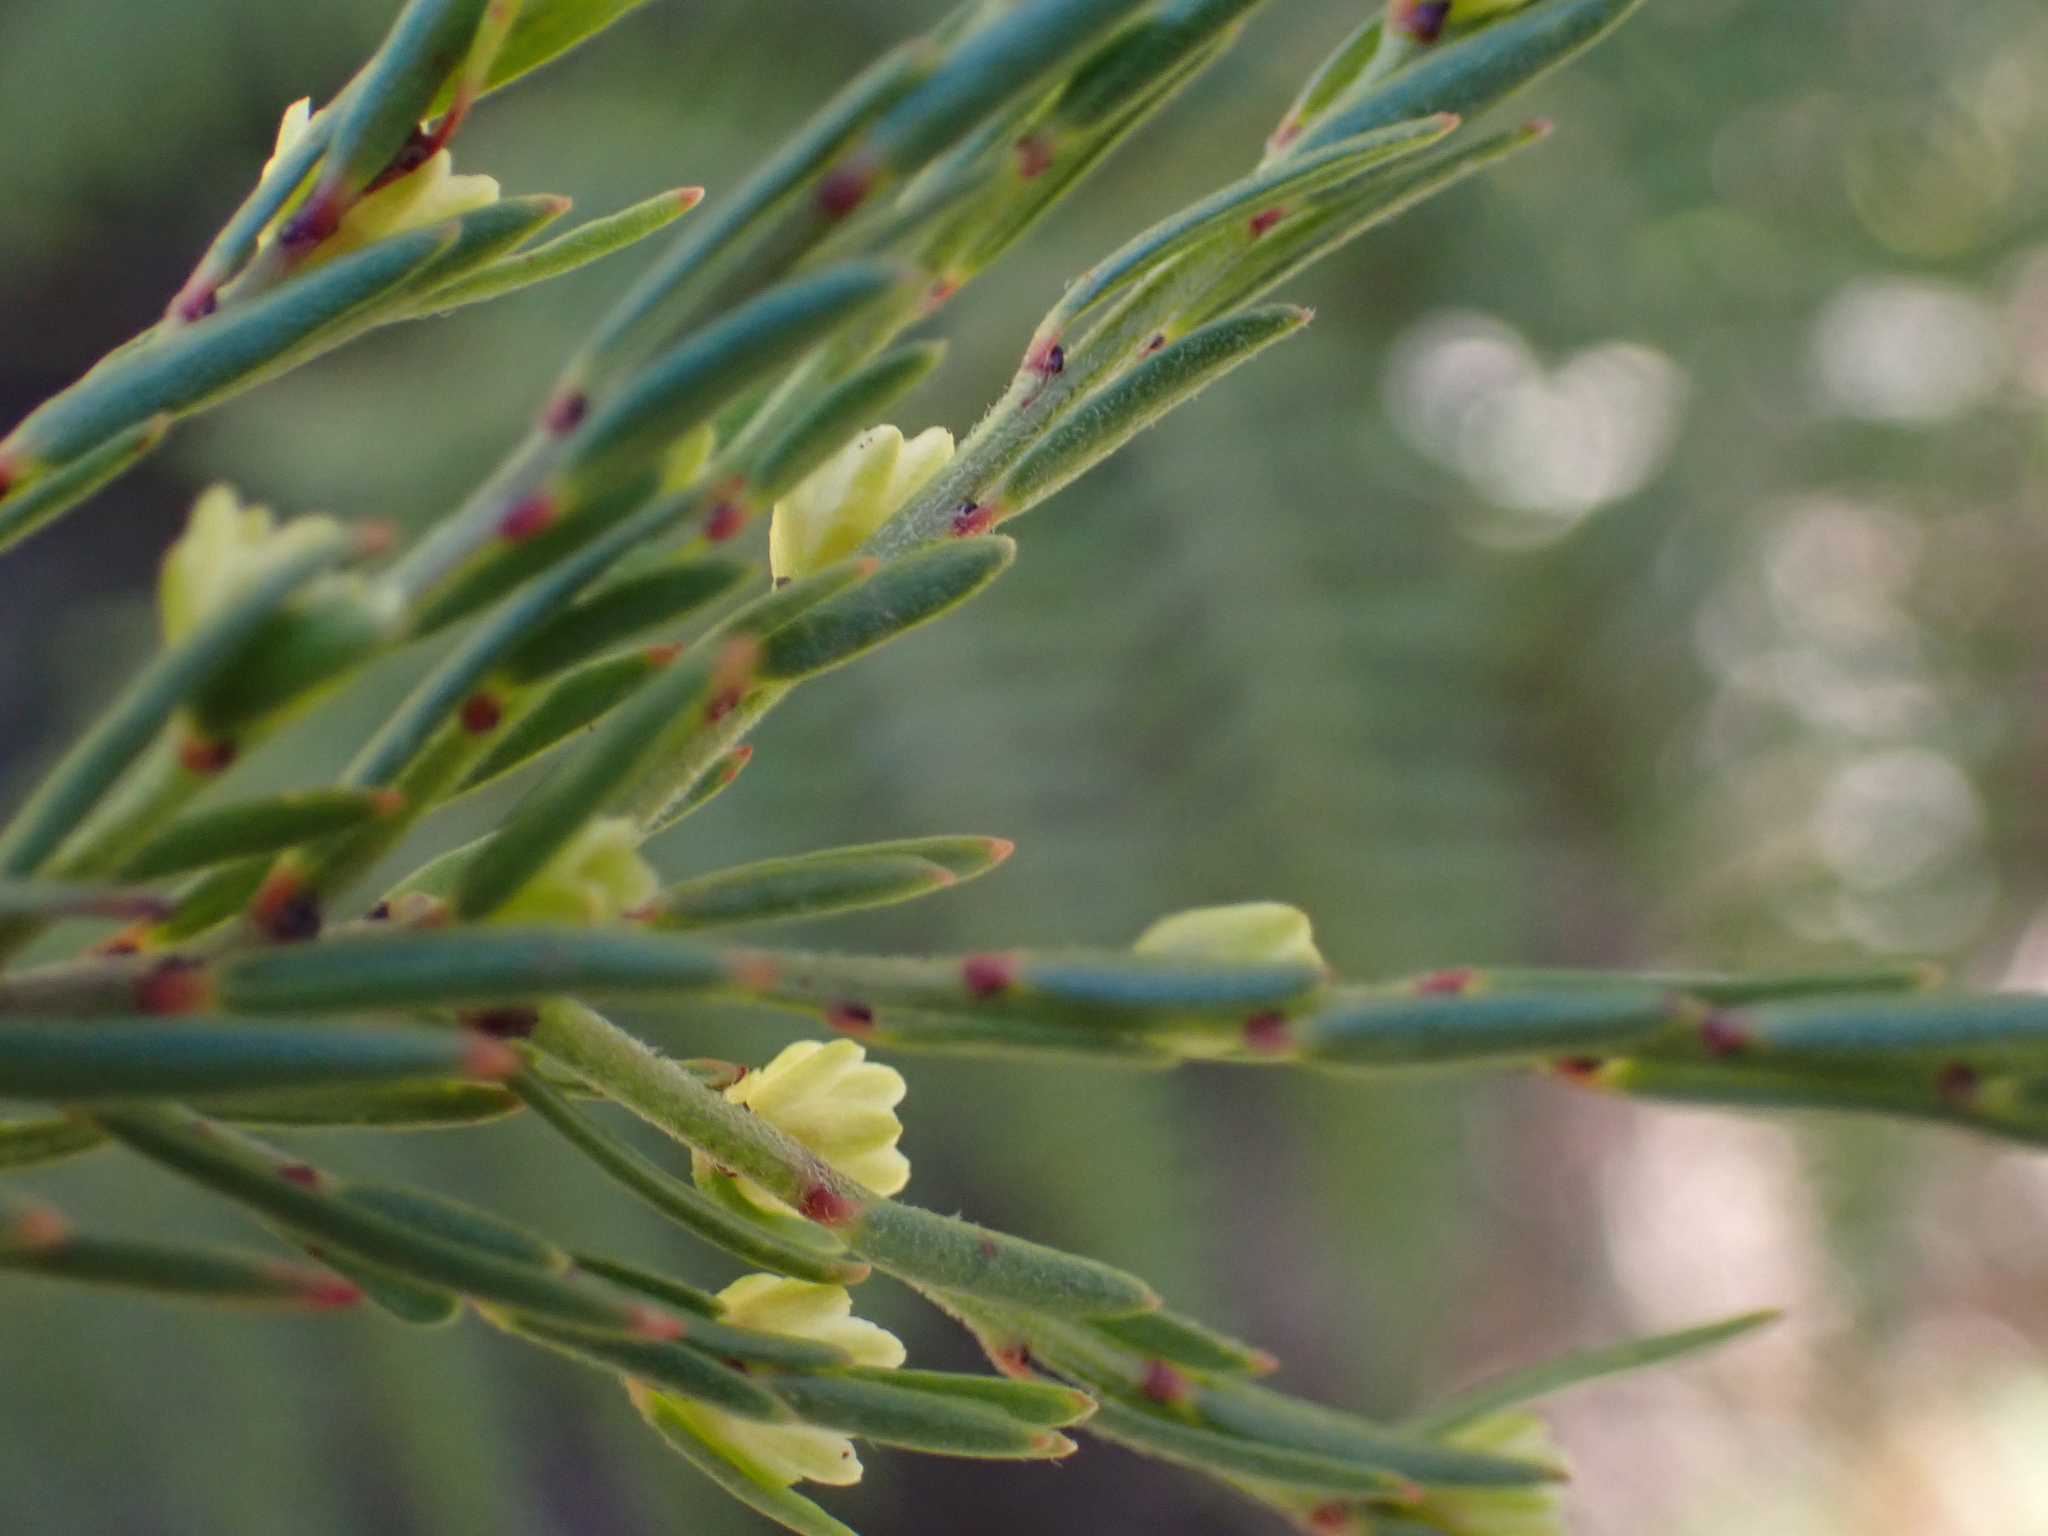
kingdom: Plantae
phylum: Tracheophyta
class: Magnoliopsida
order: Malpighiales
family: Peraceae
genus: Clutia
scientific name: Clutia ericoides
